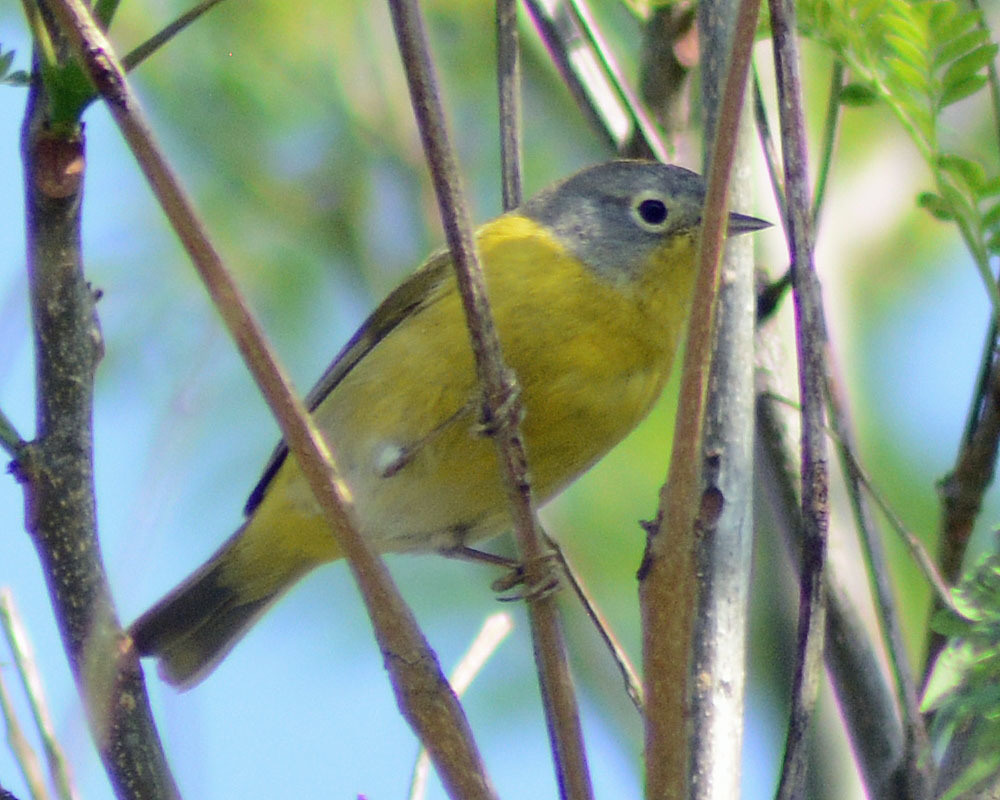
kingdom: Animalia
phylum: Chordata
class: Aves
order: Passeriformes
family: Parulidae
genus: Leiothlypis
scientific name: Leiothlypis ruficapilla
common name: Nashville warbler
